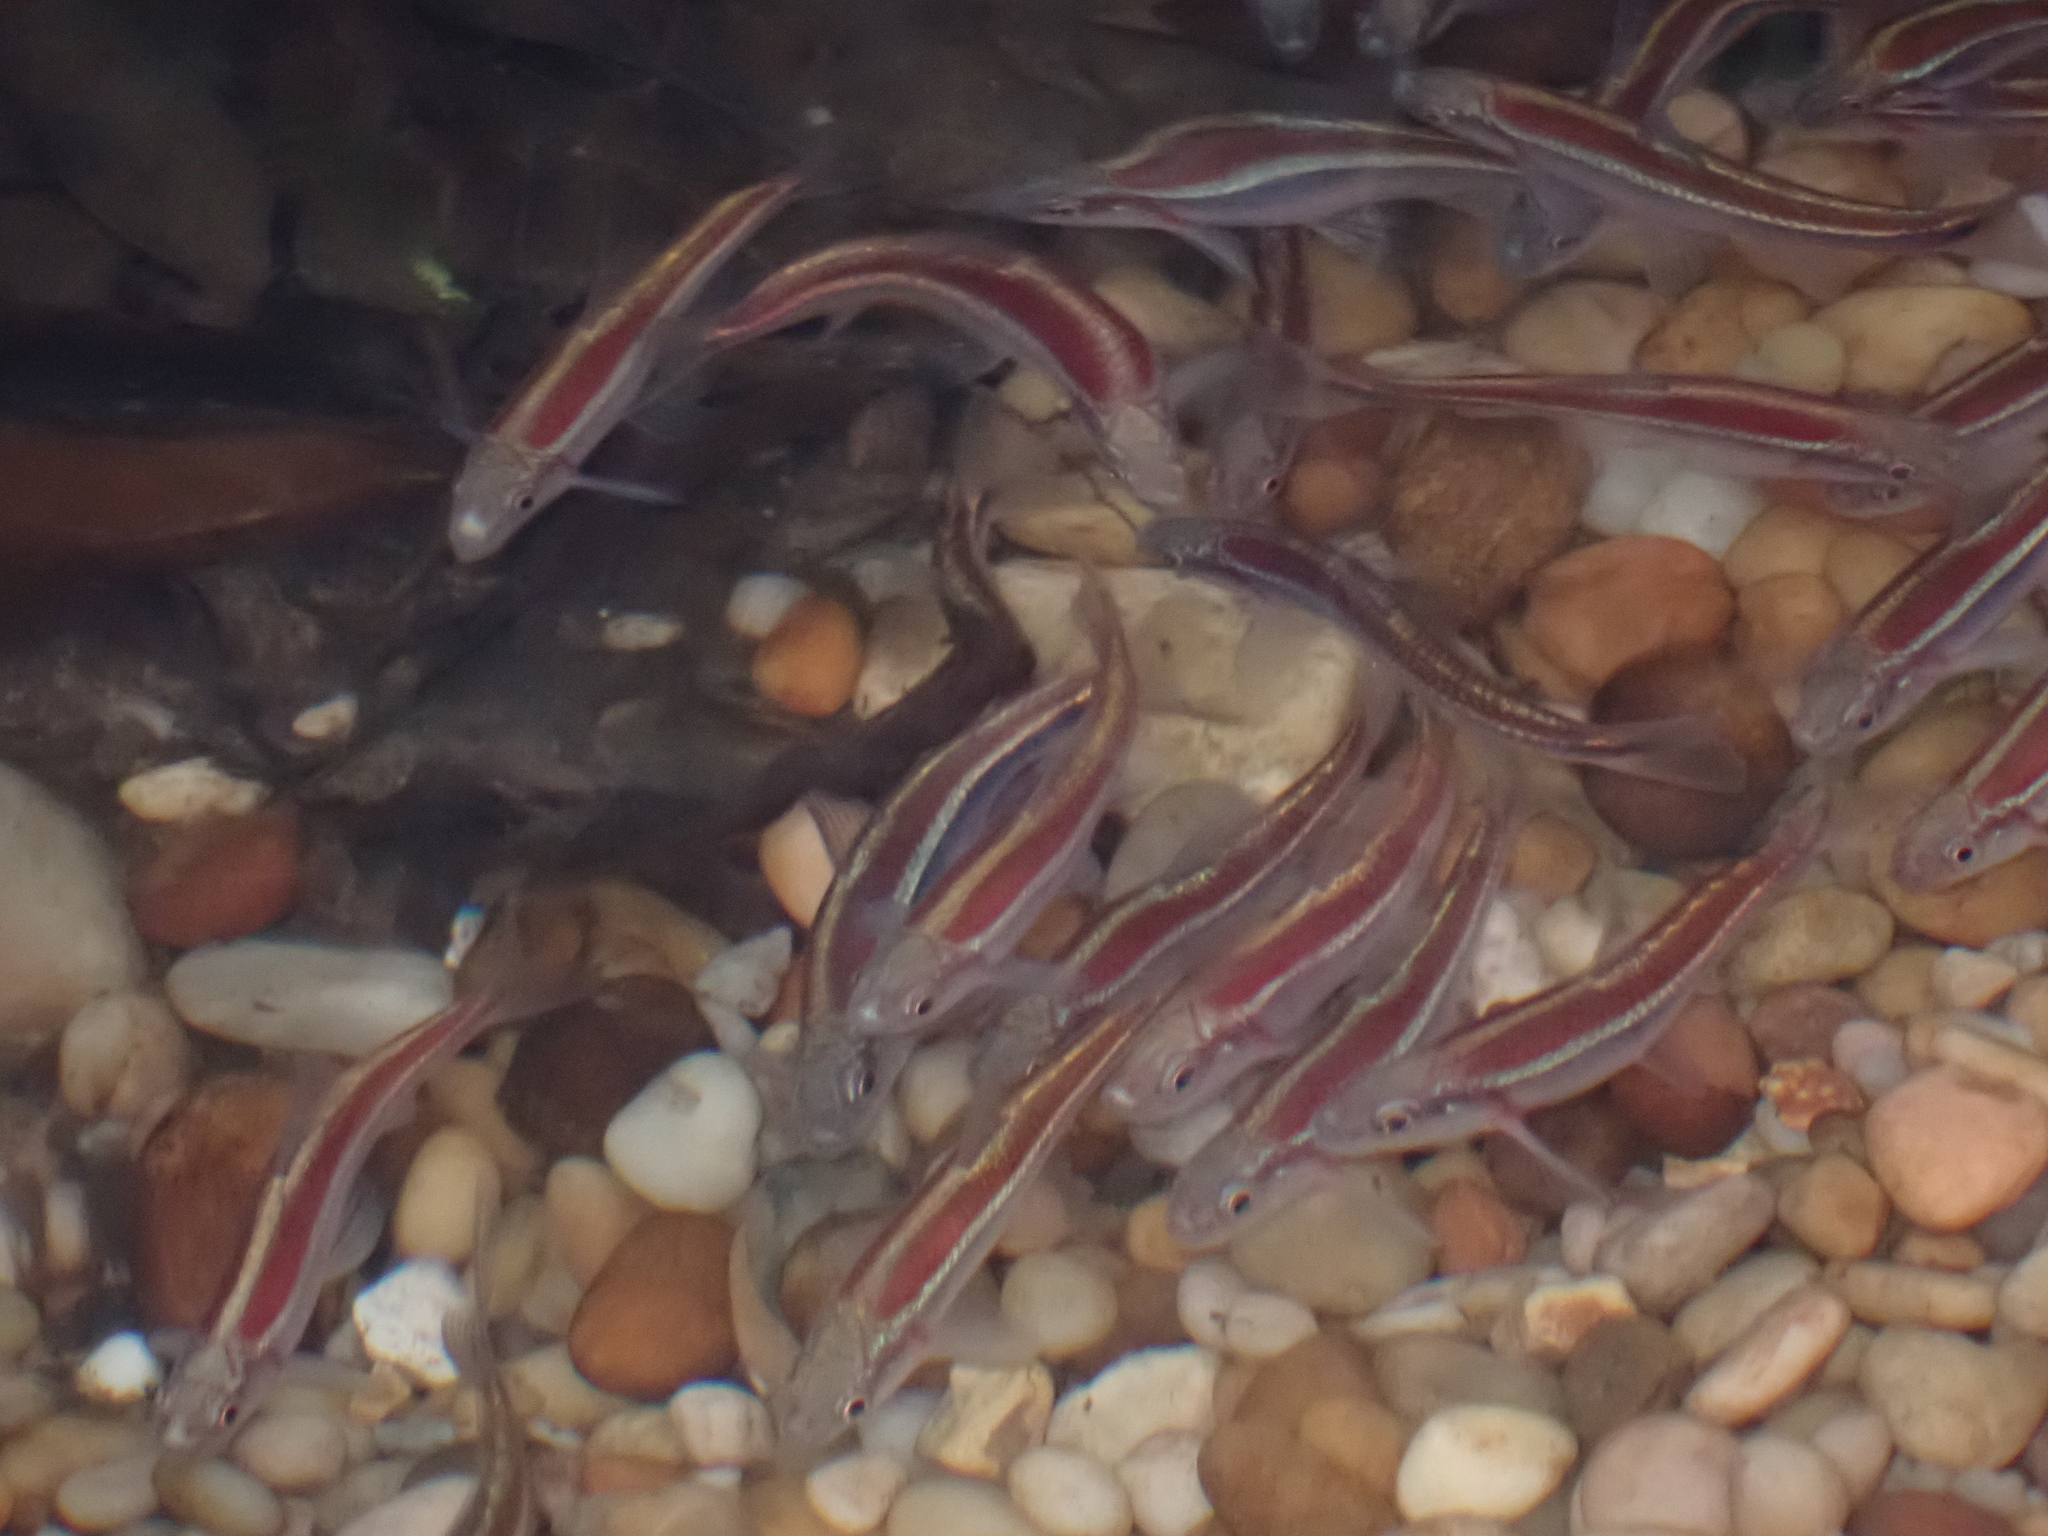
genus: Alburnops
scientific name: Alburnops
